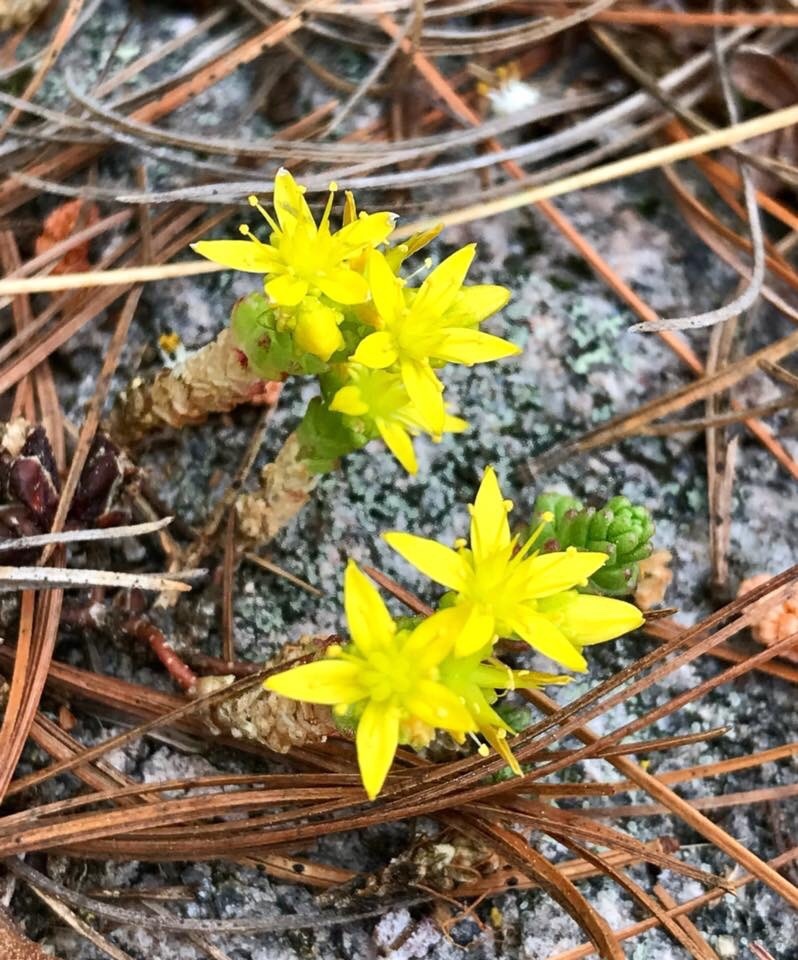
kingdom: Plantae
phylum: Tracheophyta
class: Magnoliopsida
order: Saxifragales
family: Crassulaceae
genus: Sedum
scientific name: Sedum acre
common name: Biting stonecrop
